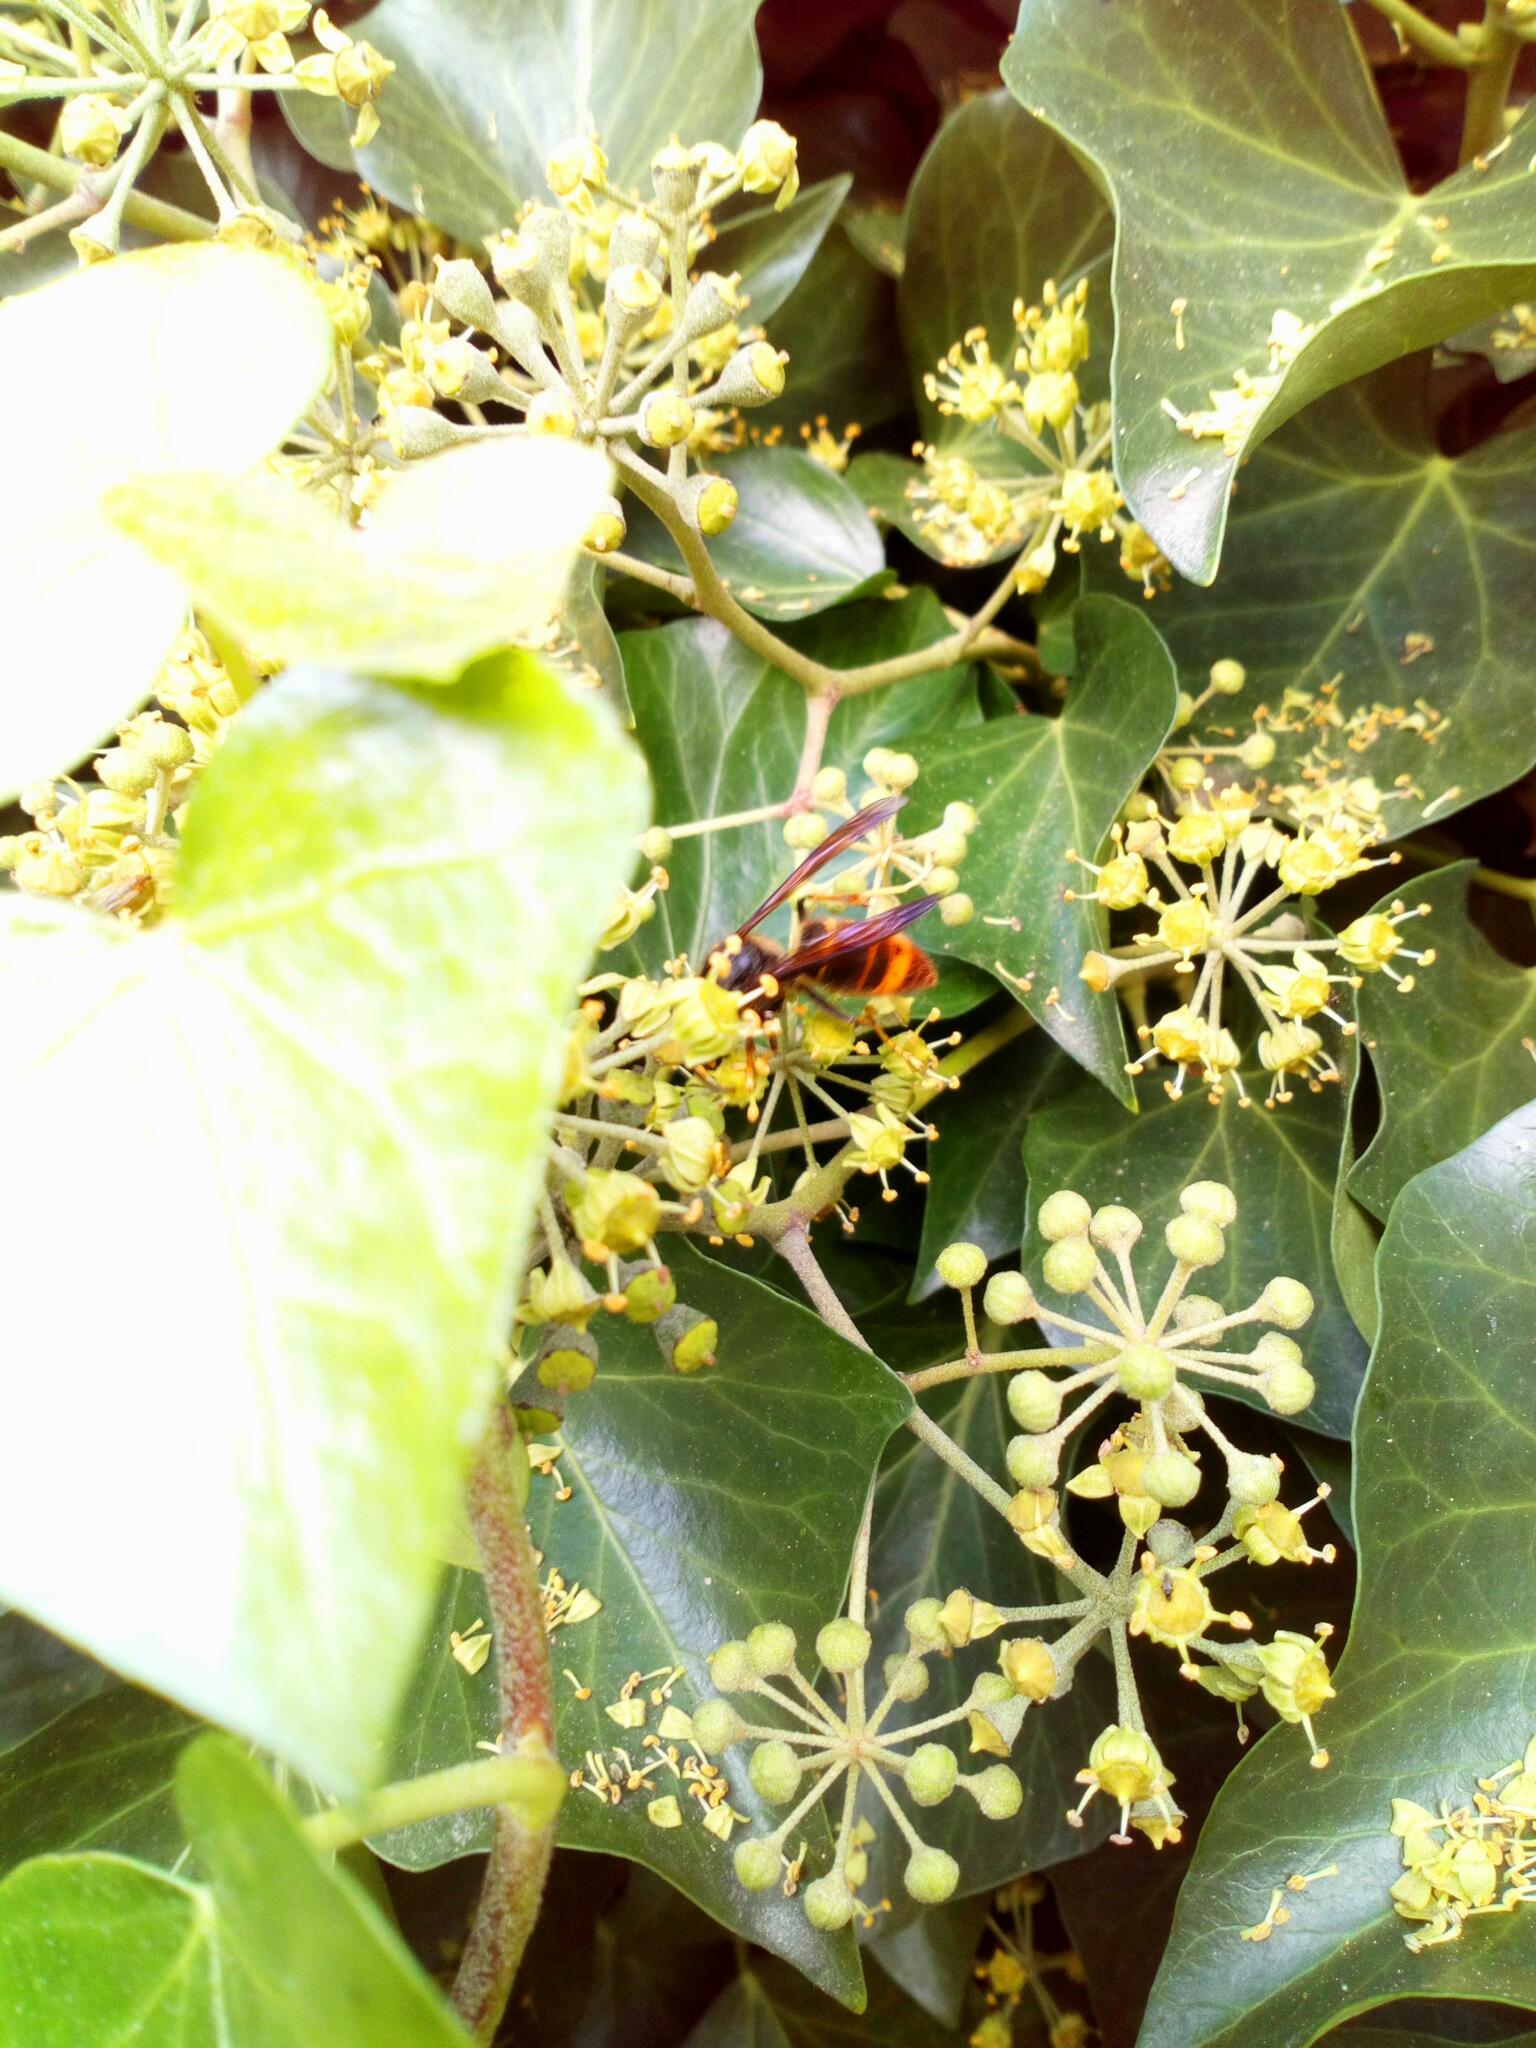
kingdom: Animalia
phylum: Arthropoda
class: Insecta
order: Hymenoptera
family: Vespidae
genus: Vespa
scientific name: Vespa velutina
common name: Asian hornet
